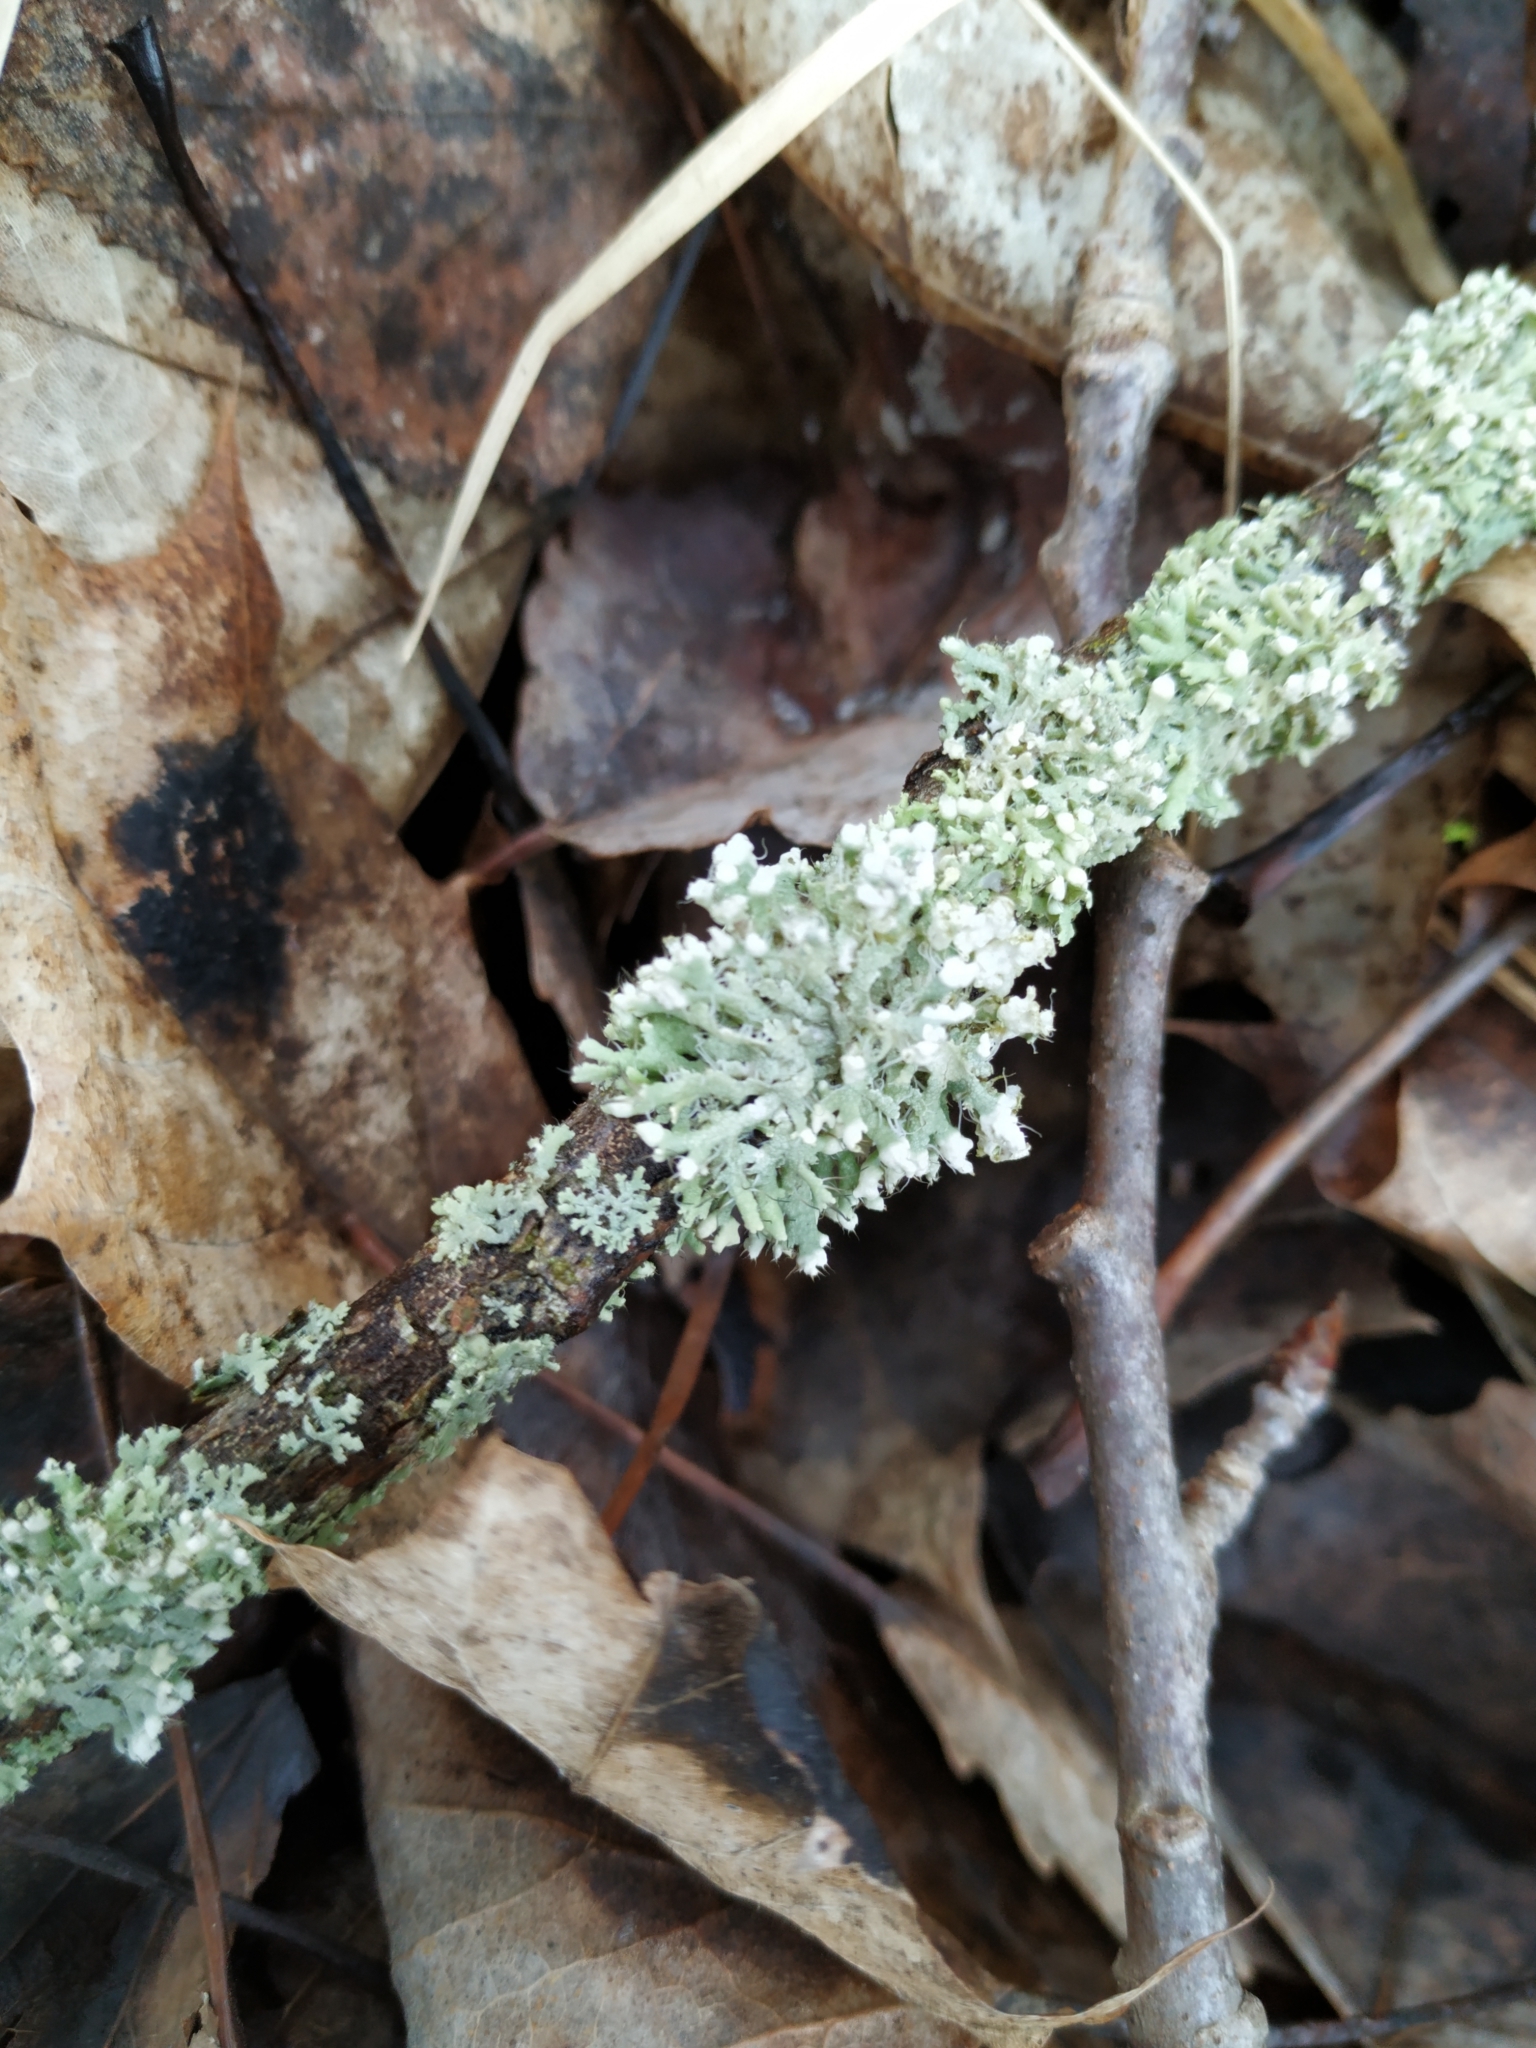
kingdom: Fungi
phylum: Ascomycota
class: Lecanoromycetes
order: Caliciales
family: Physciaceae
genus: Physcia
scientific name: Physcia adscendens
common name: Hooded rosette lichen
